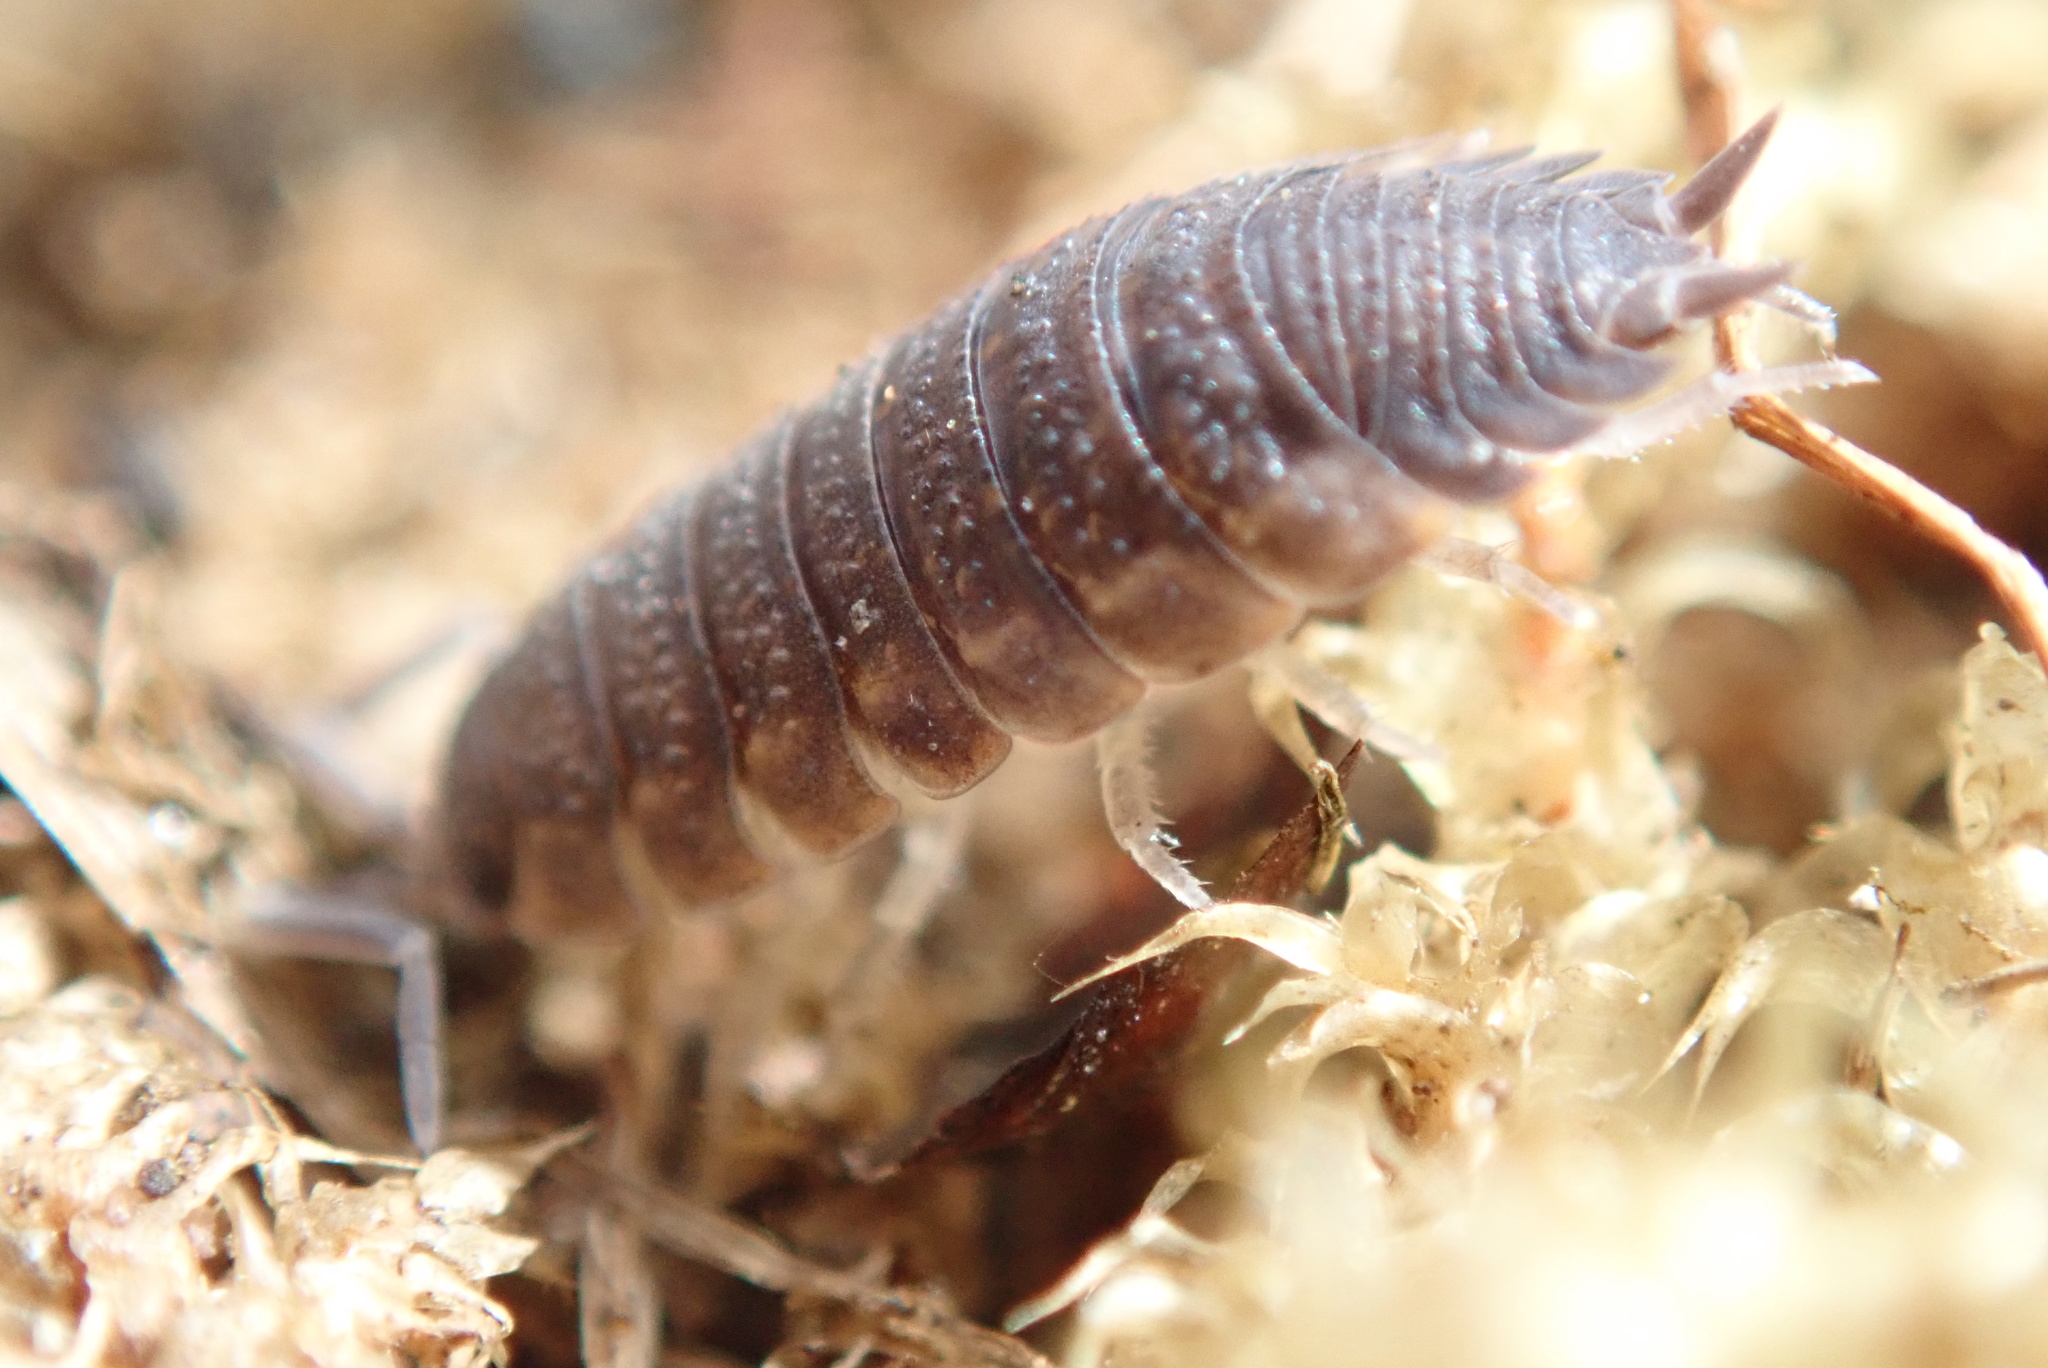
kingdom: Animalia
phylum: Arthropoda
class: Malacostraca
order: Isopoda
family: Porcellionidae
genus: Porcellio
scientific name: Porcellio scaber
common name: Common rough woodlouse
